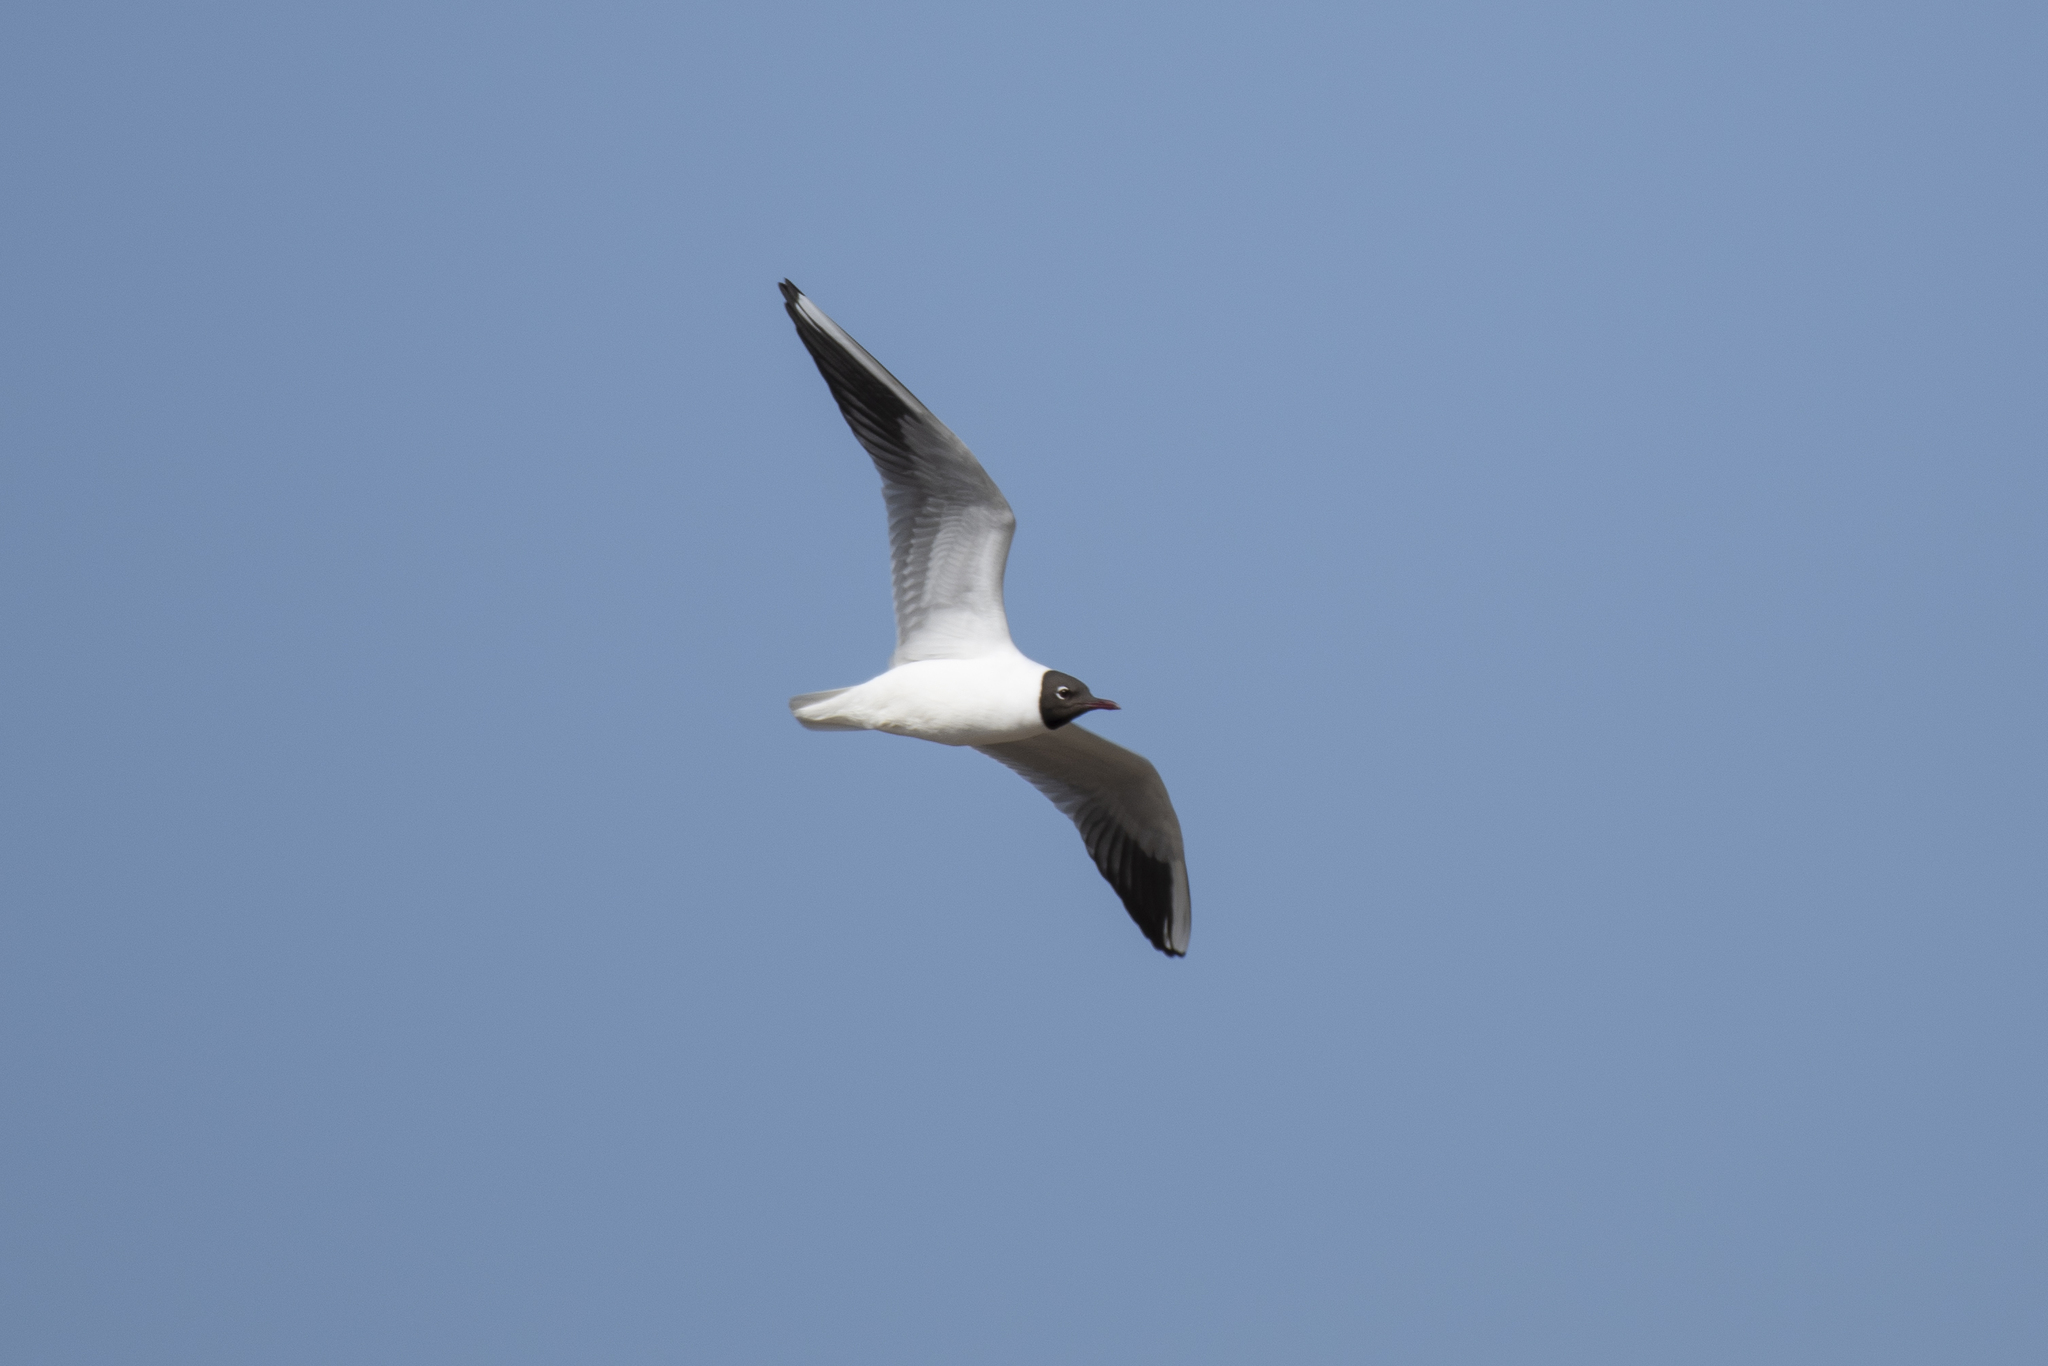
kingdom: Animalia
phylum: Chordata
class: Aves
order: Charadriiformes
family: Laridae
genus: Chroicocephalus
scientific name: Chroicocephalus ridibundus
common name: Black-headed gull
